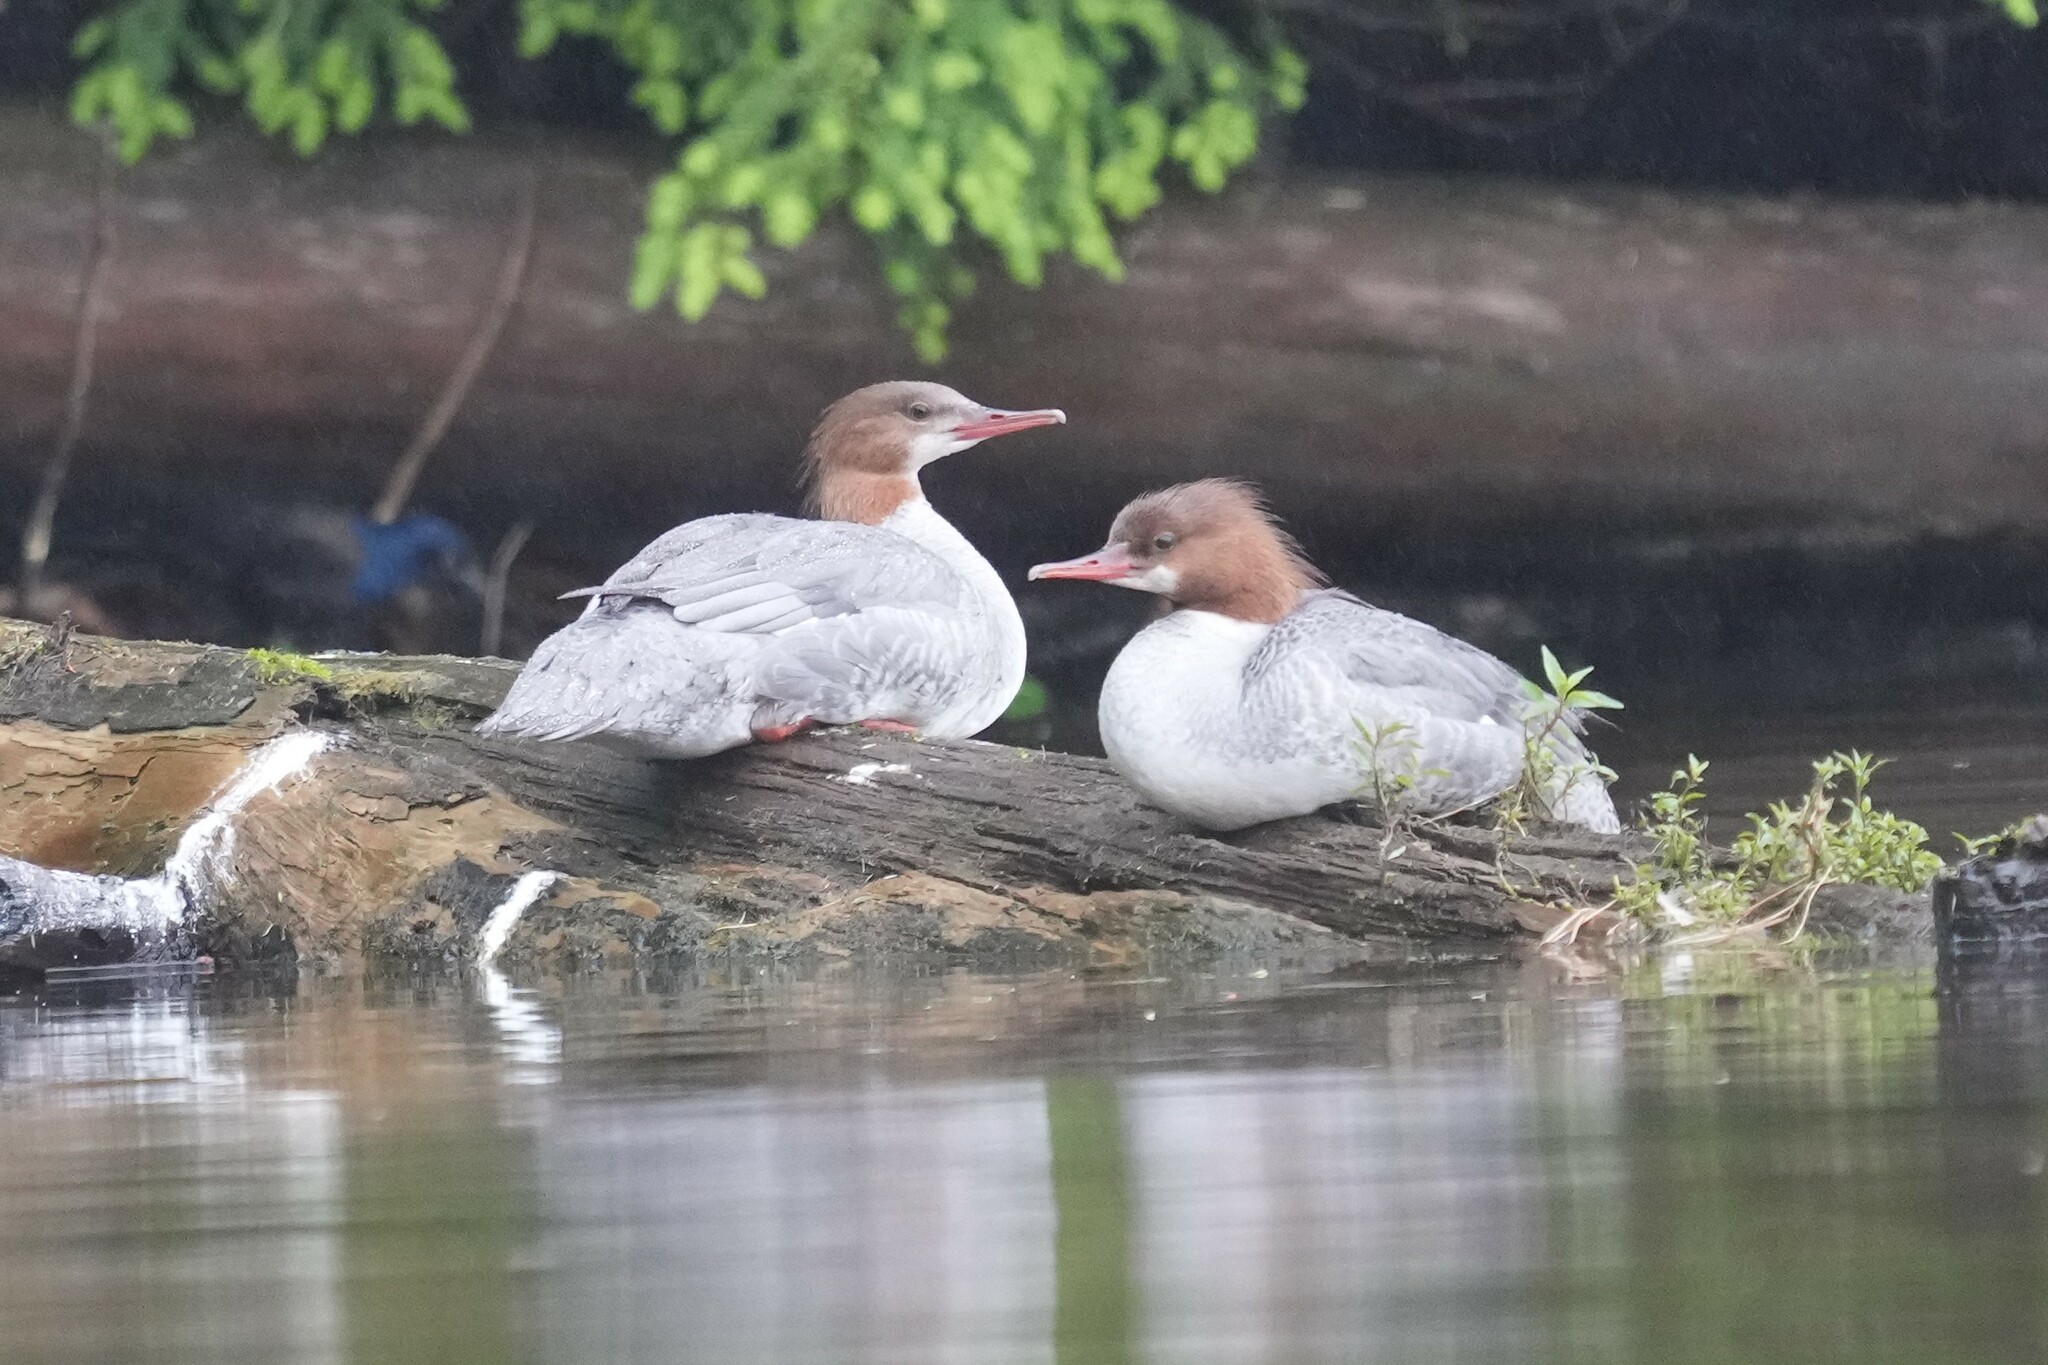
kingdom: Animalia
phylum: Chordata
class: Aves
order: Anseriformes
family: Anatidae
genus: Mergus
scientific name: Mergus merganser
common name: Common merganser
